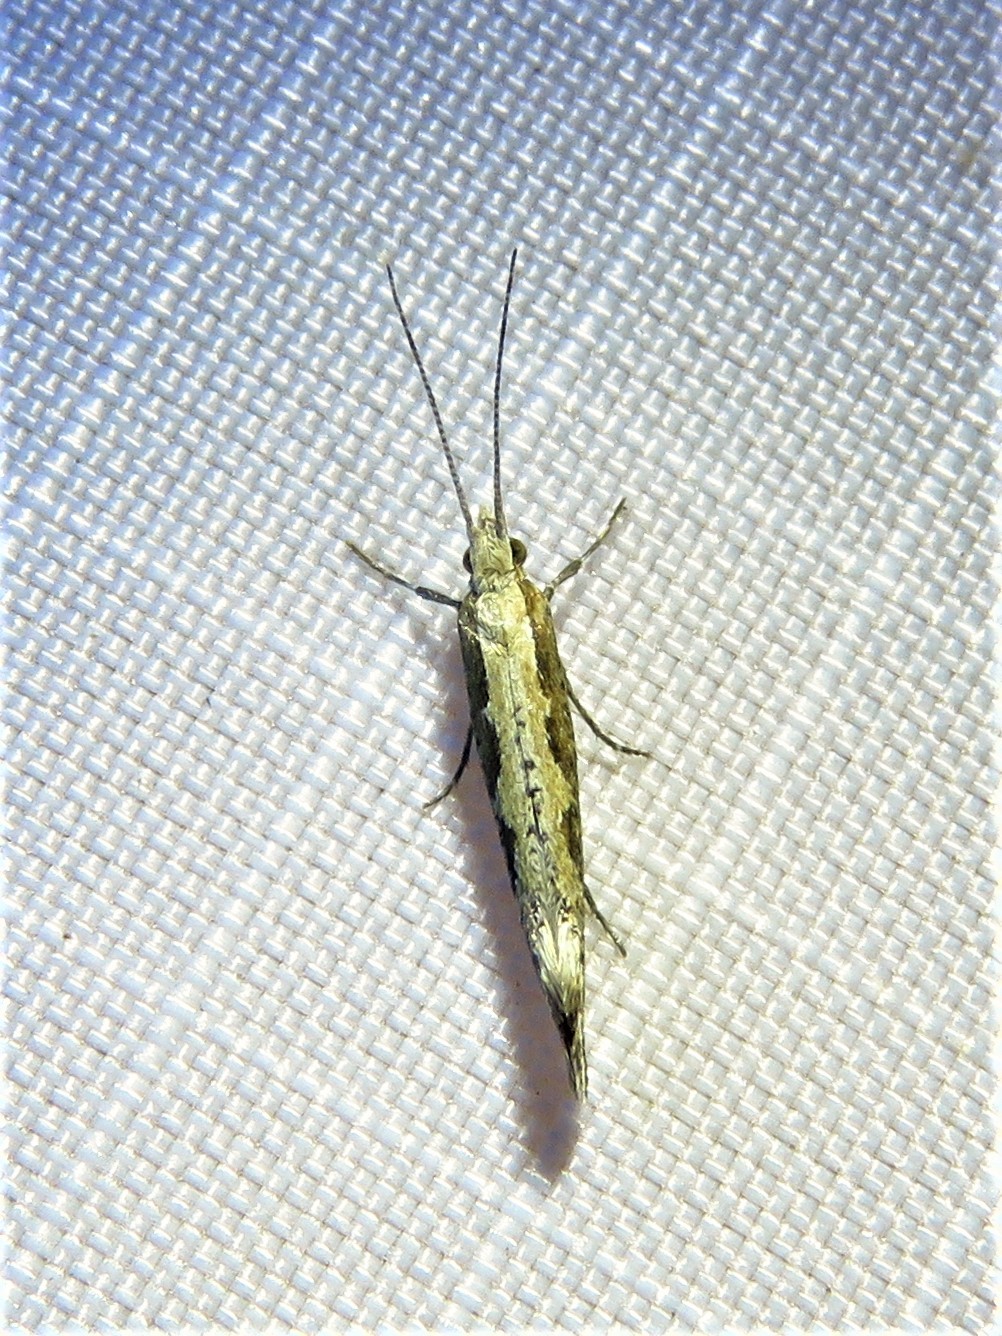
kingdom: Animalia
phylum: Arthropoda
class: Insecta
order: Lepidoptera
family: Plutellidae
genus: Plutella
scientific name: Plutella xylostella
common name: Diamond-back moth
